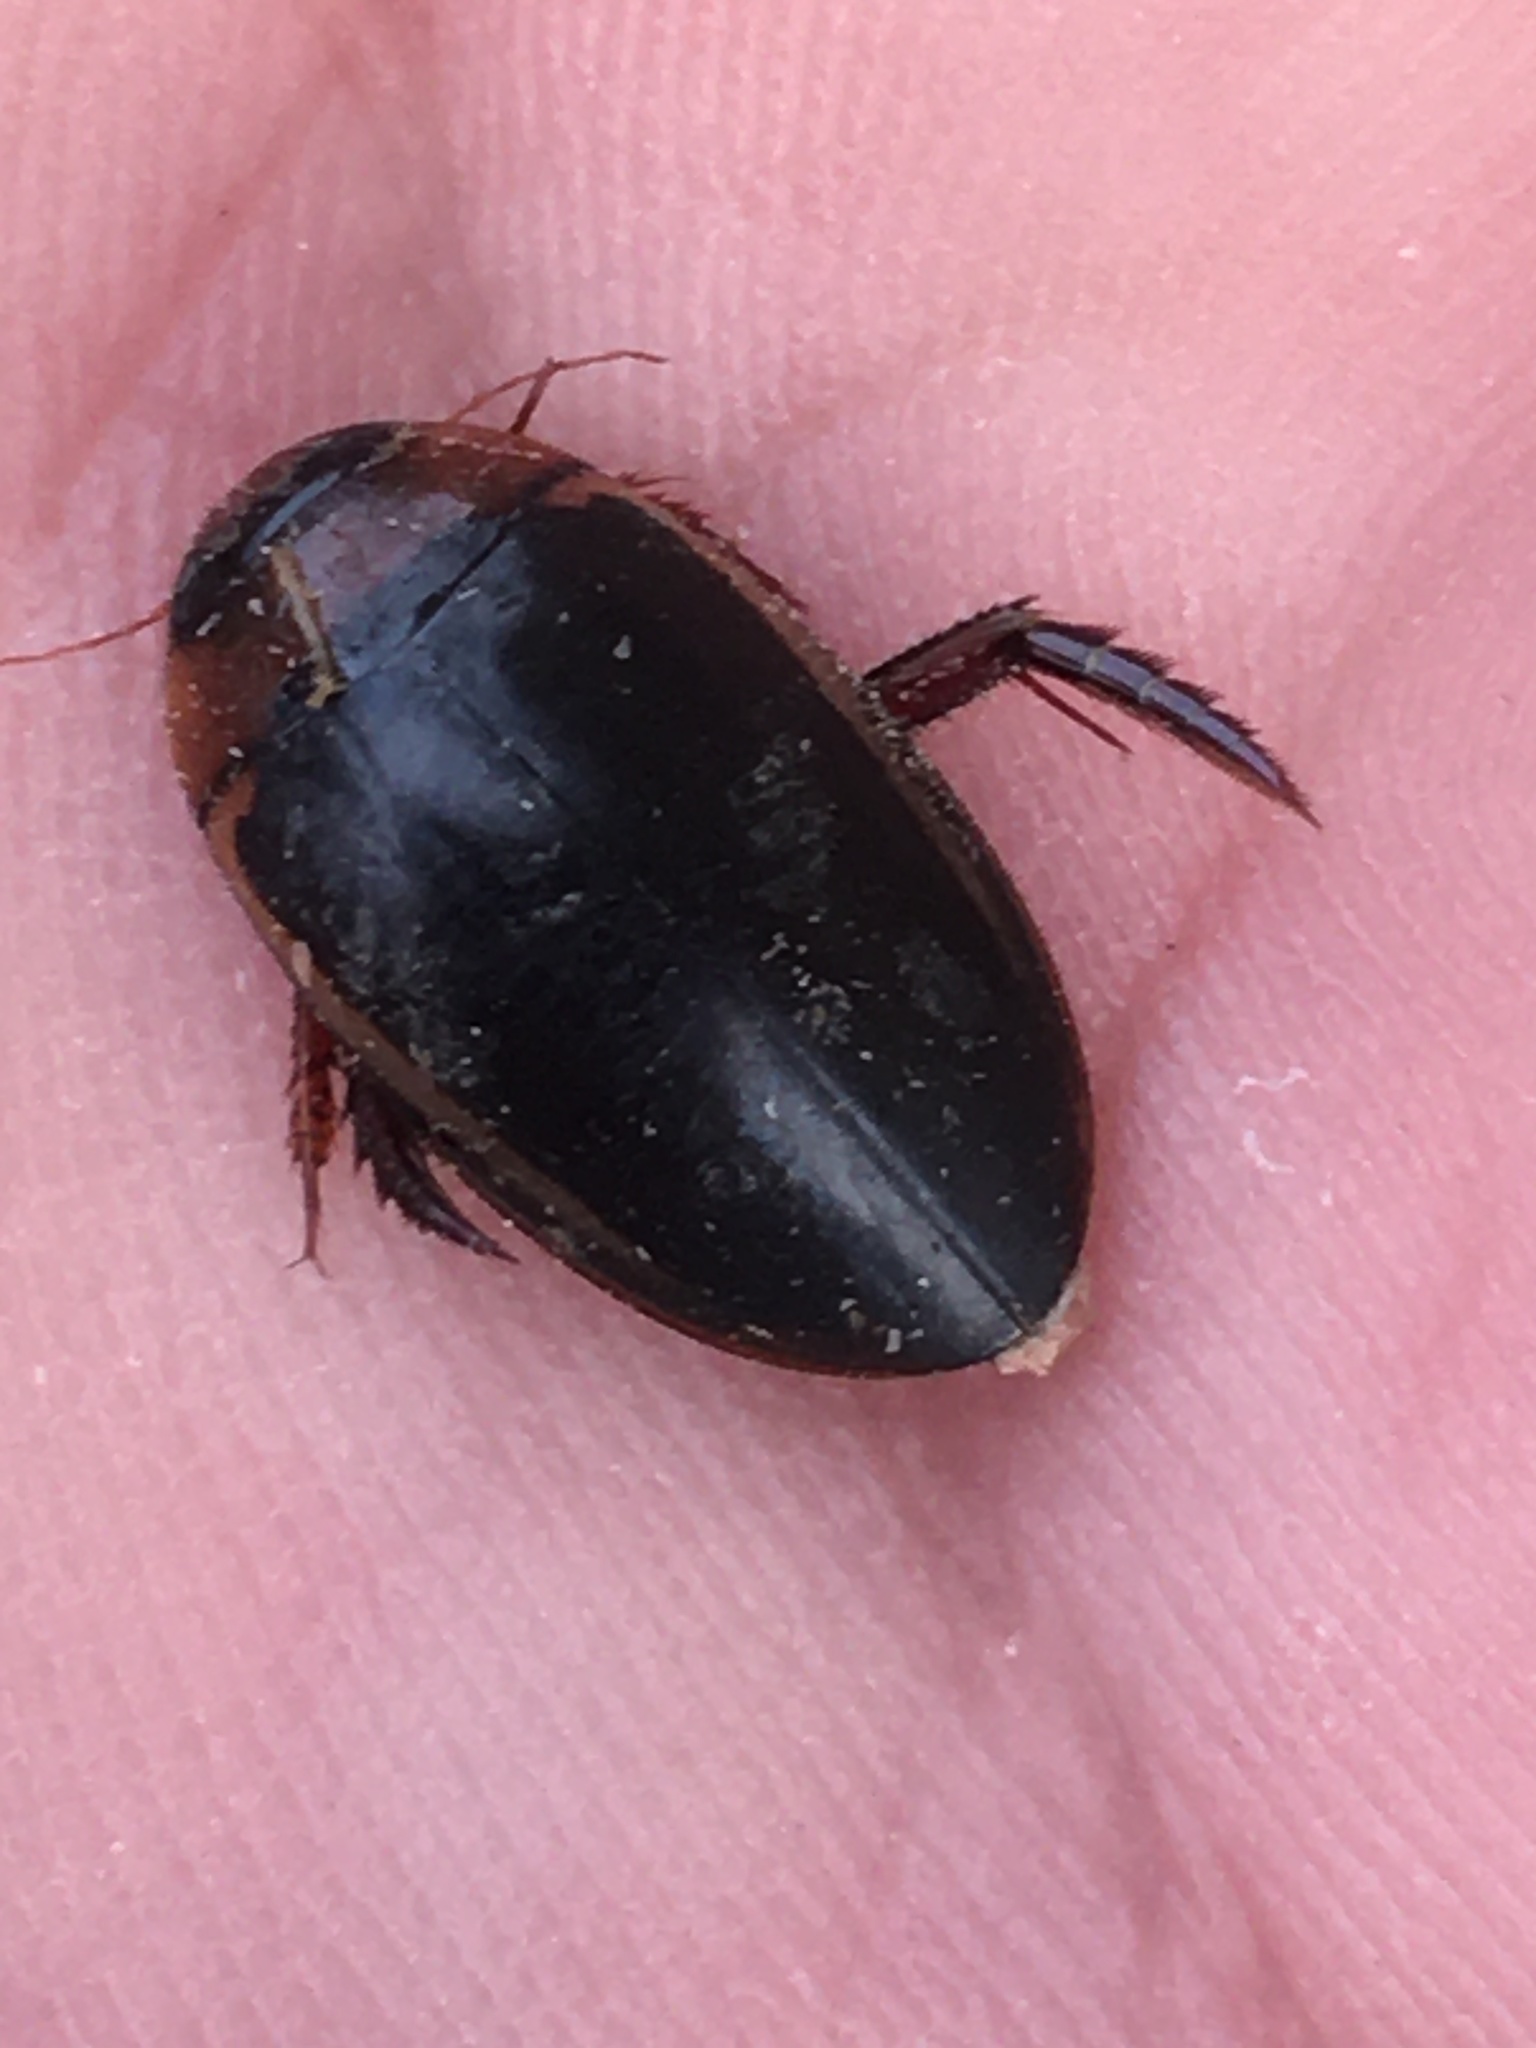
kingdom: Animalia
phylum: Arthropoda
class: Insecta
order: Coleoptera
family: Dytiscidae
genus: Hydaticus
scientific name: Hydaticus bimarginatus
